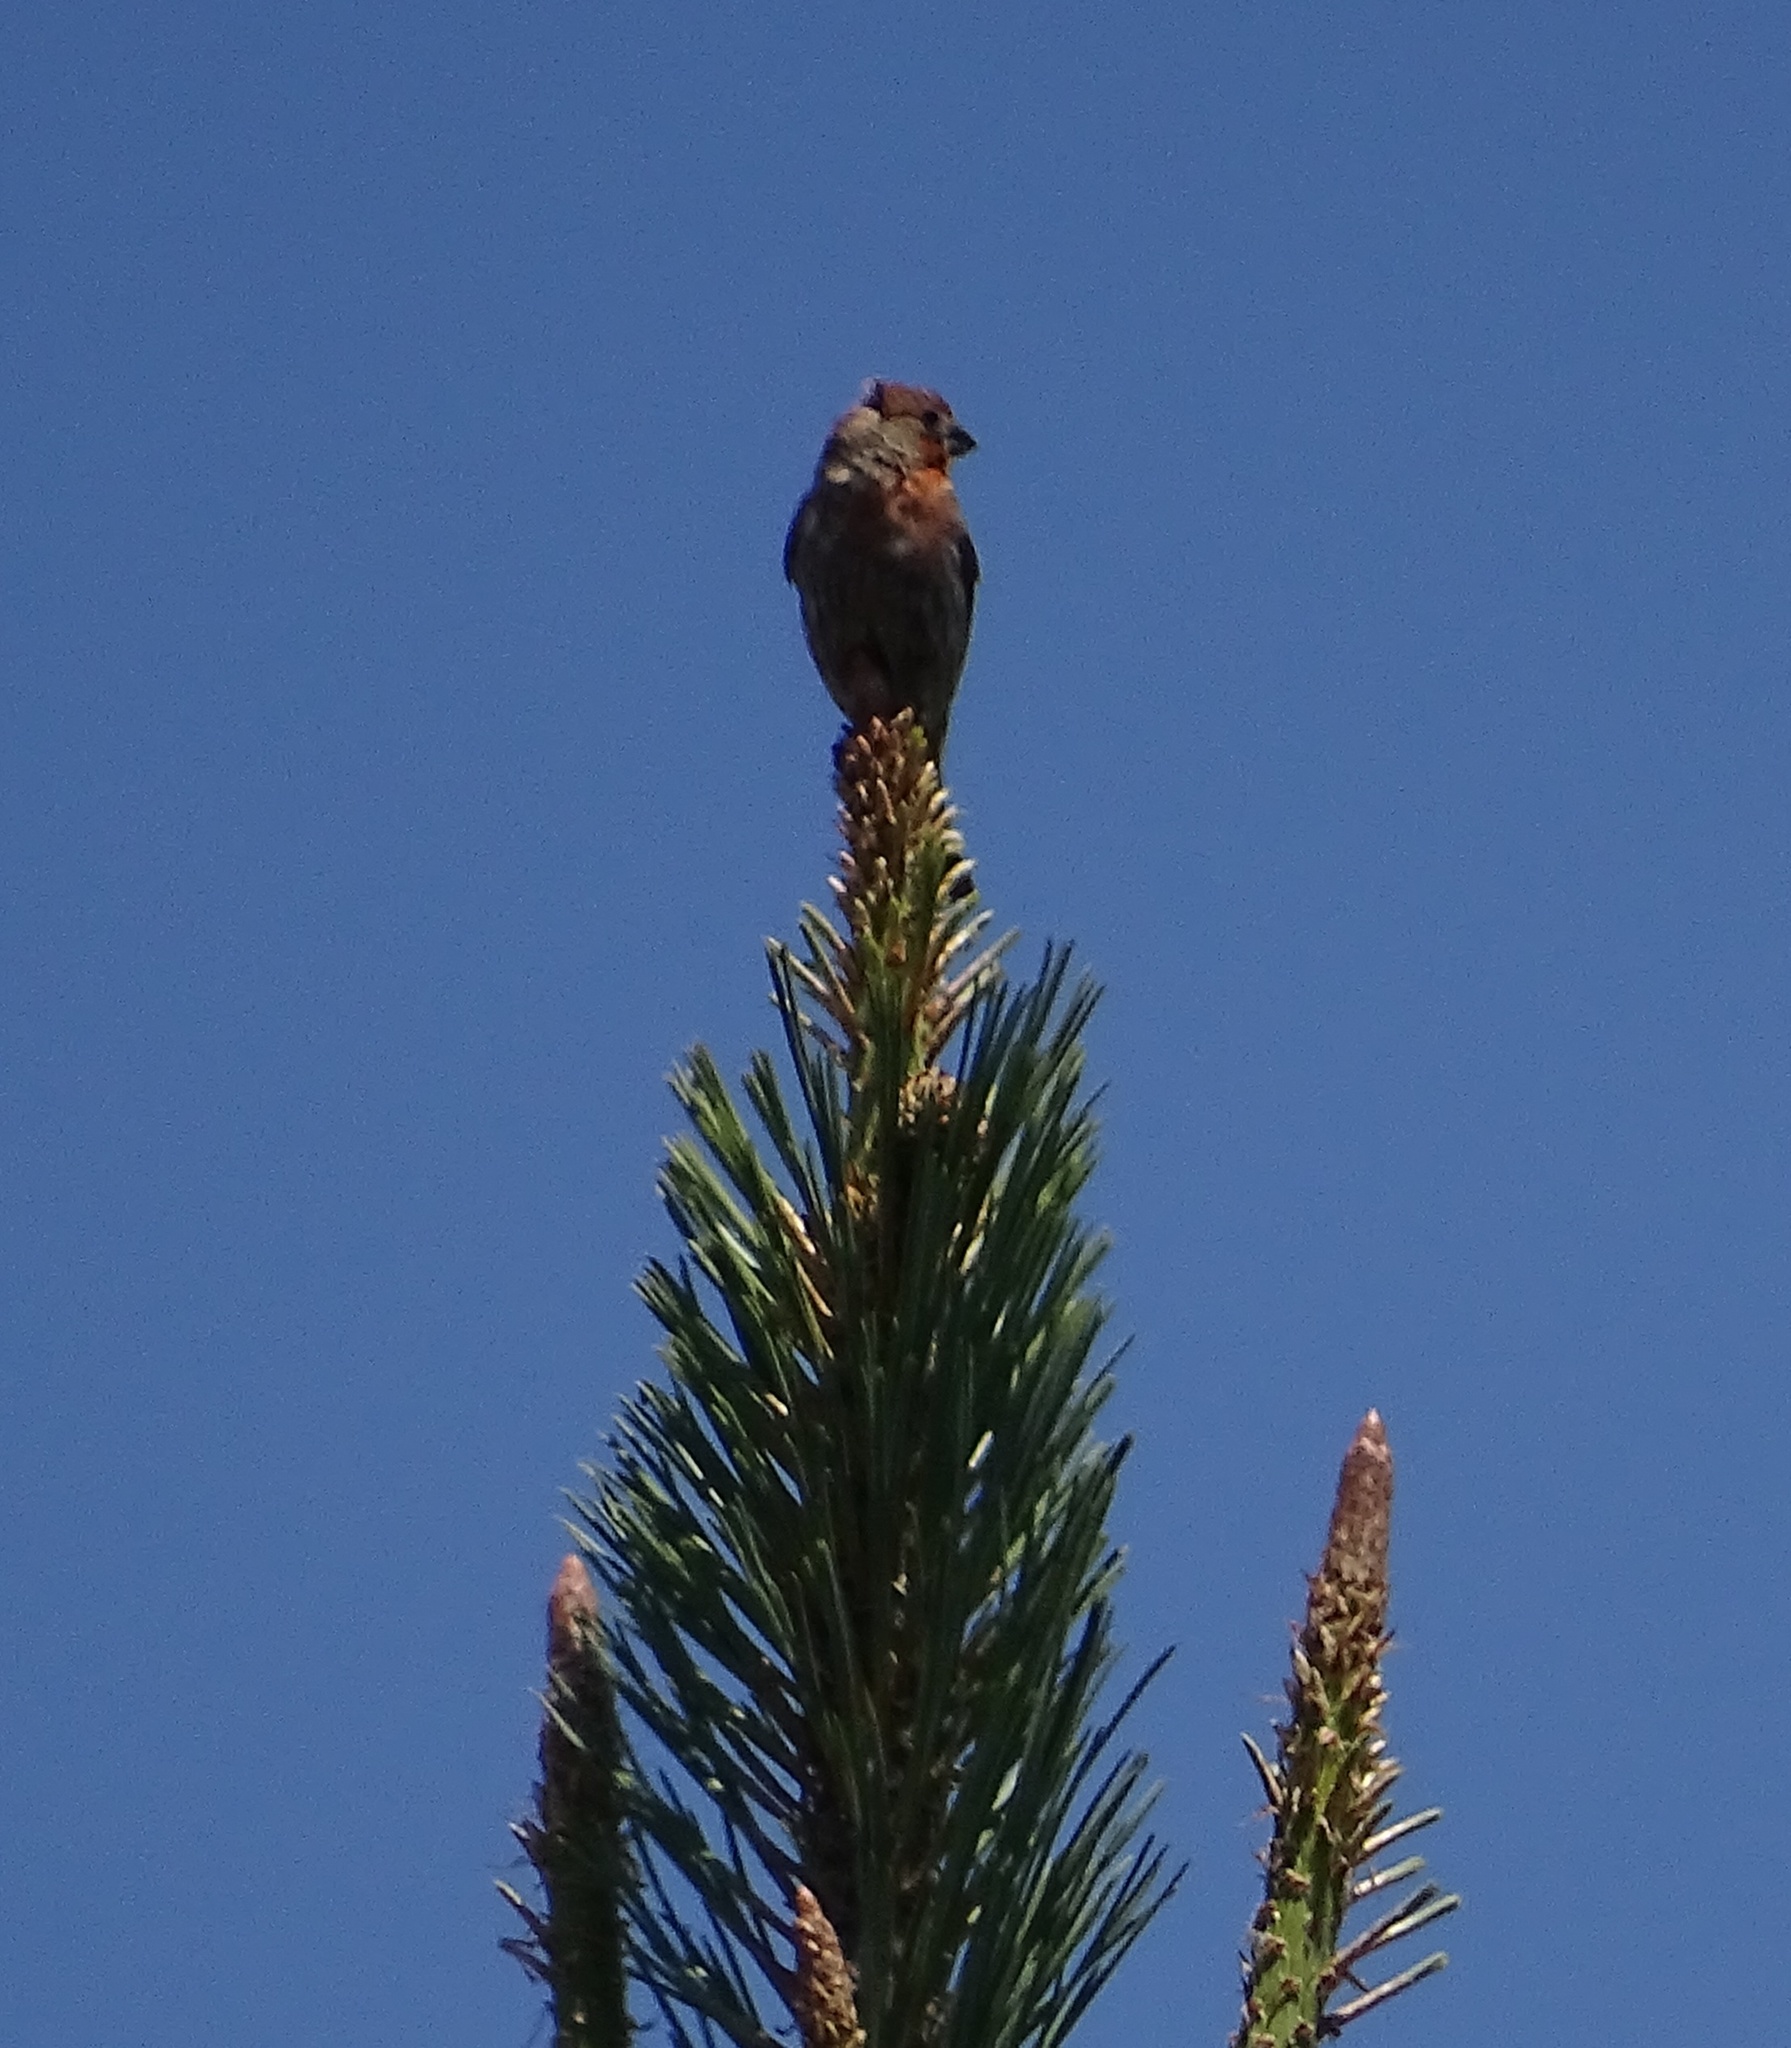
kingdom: Animalia
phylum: Chordata
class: Aves
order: Passeriformes
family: Fringillidae
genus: Haemorhous
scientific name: Haemorhous mexicanus
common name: House finch
